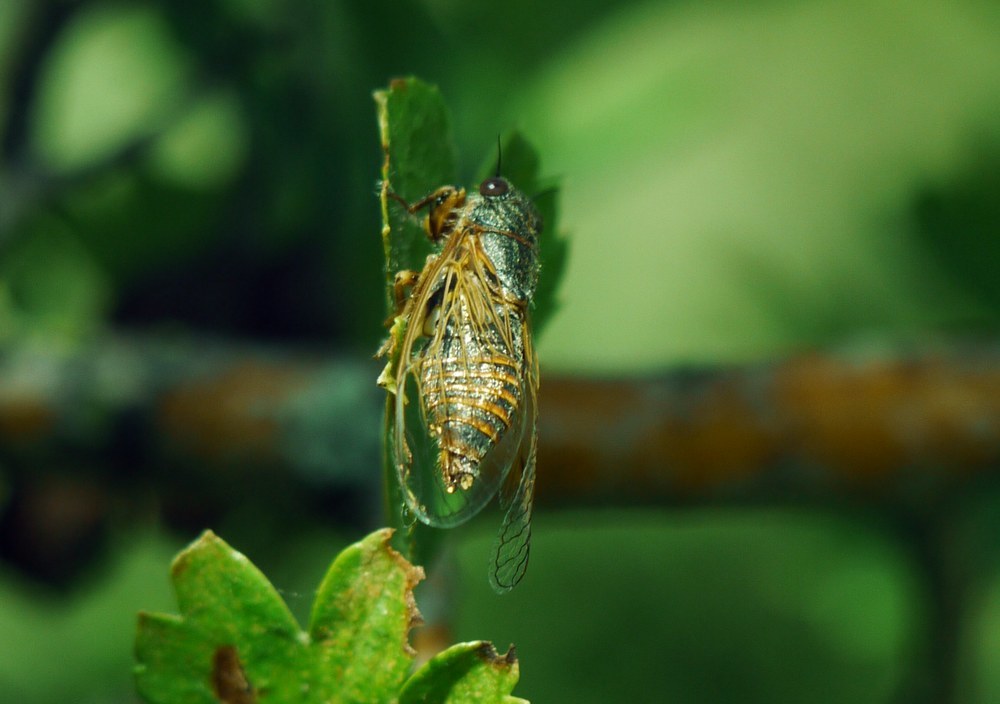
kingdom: Animalia
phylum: Arthropoda
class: Insecta
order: Hemiptera
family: Cicadidae
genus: Oligoglena
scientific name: Oligoglena tibialis
